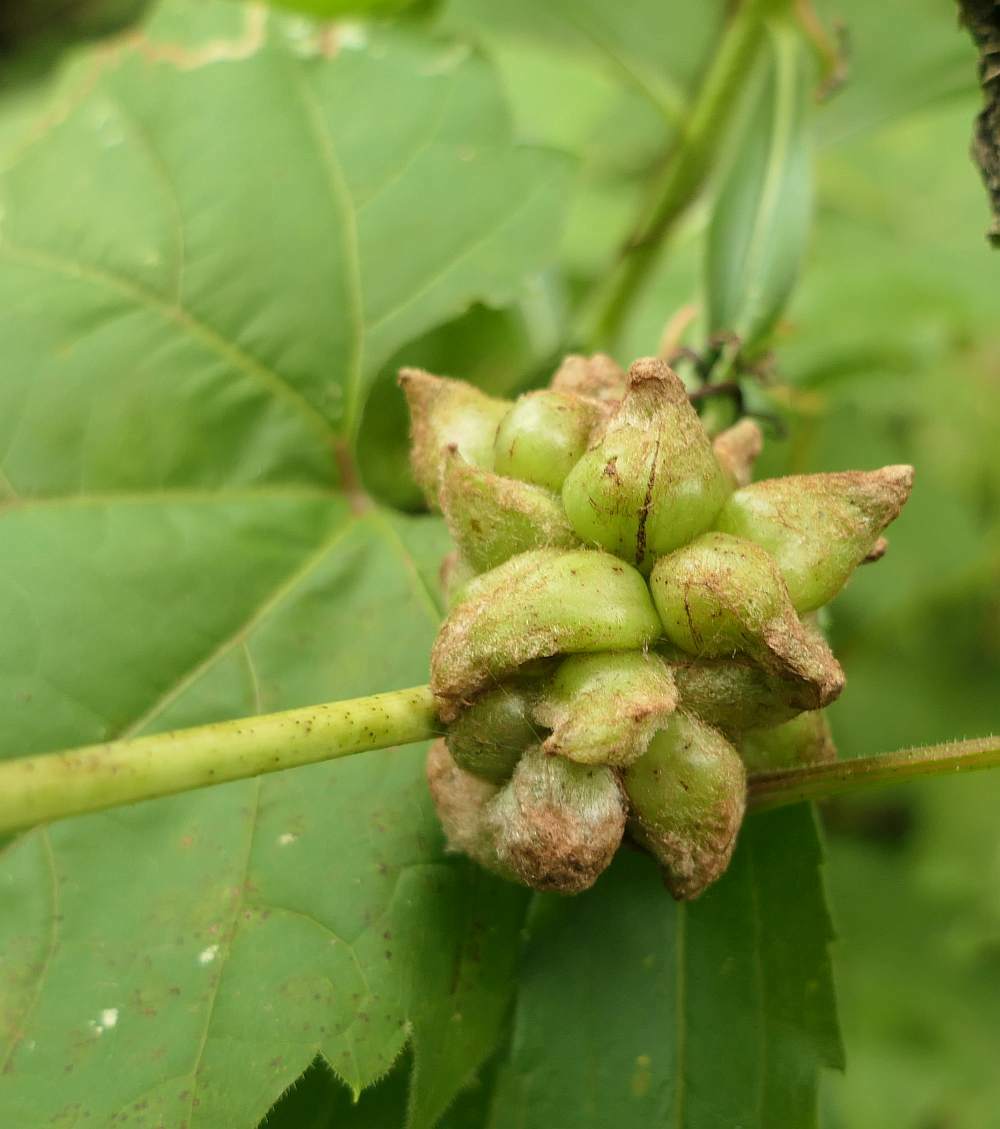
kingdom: Animalia
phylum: Arthropoda
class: Insecta
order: Diptera
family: Cecidomyiidae
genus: Ampelomyia
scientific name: Ampelomyia vitiscoryloides
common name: Grape filbert gall
